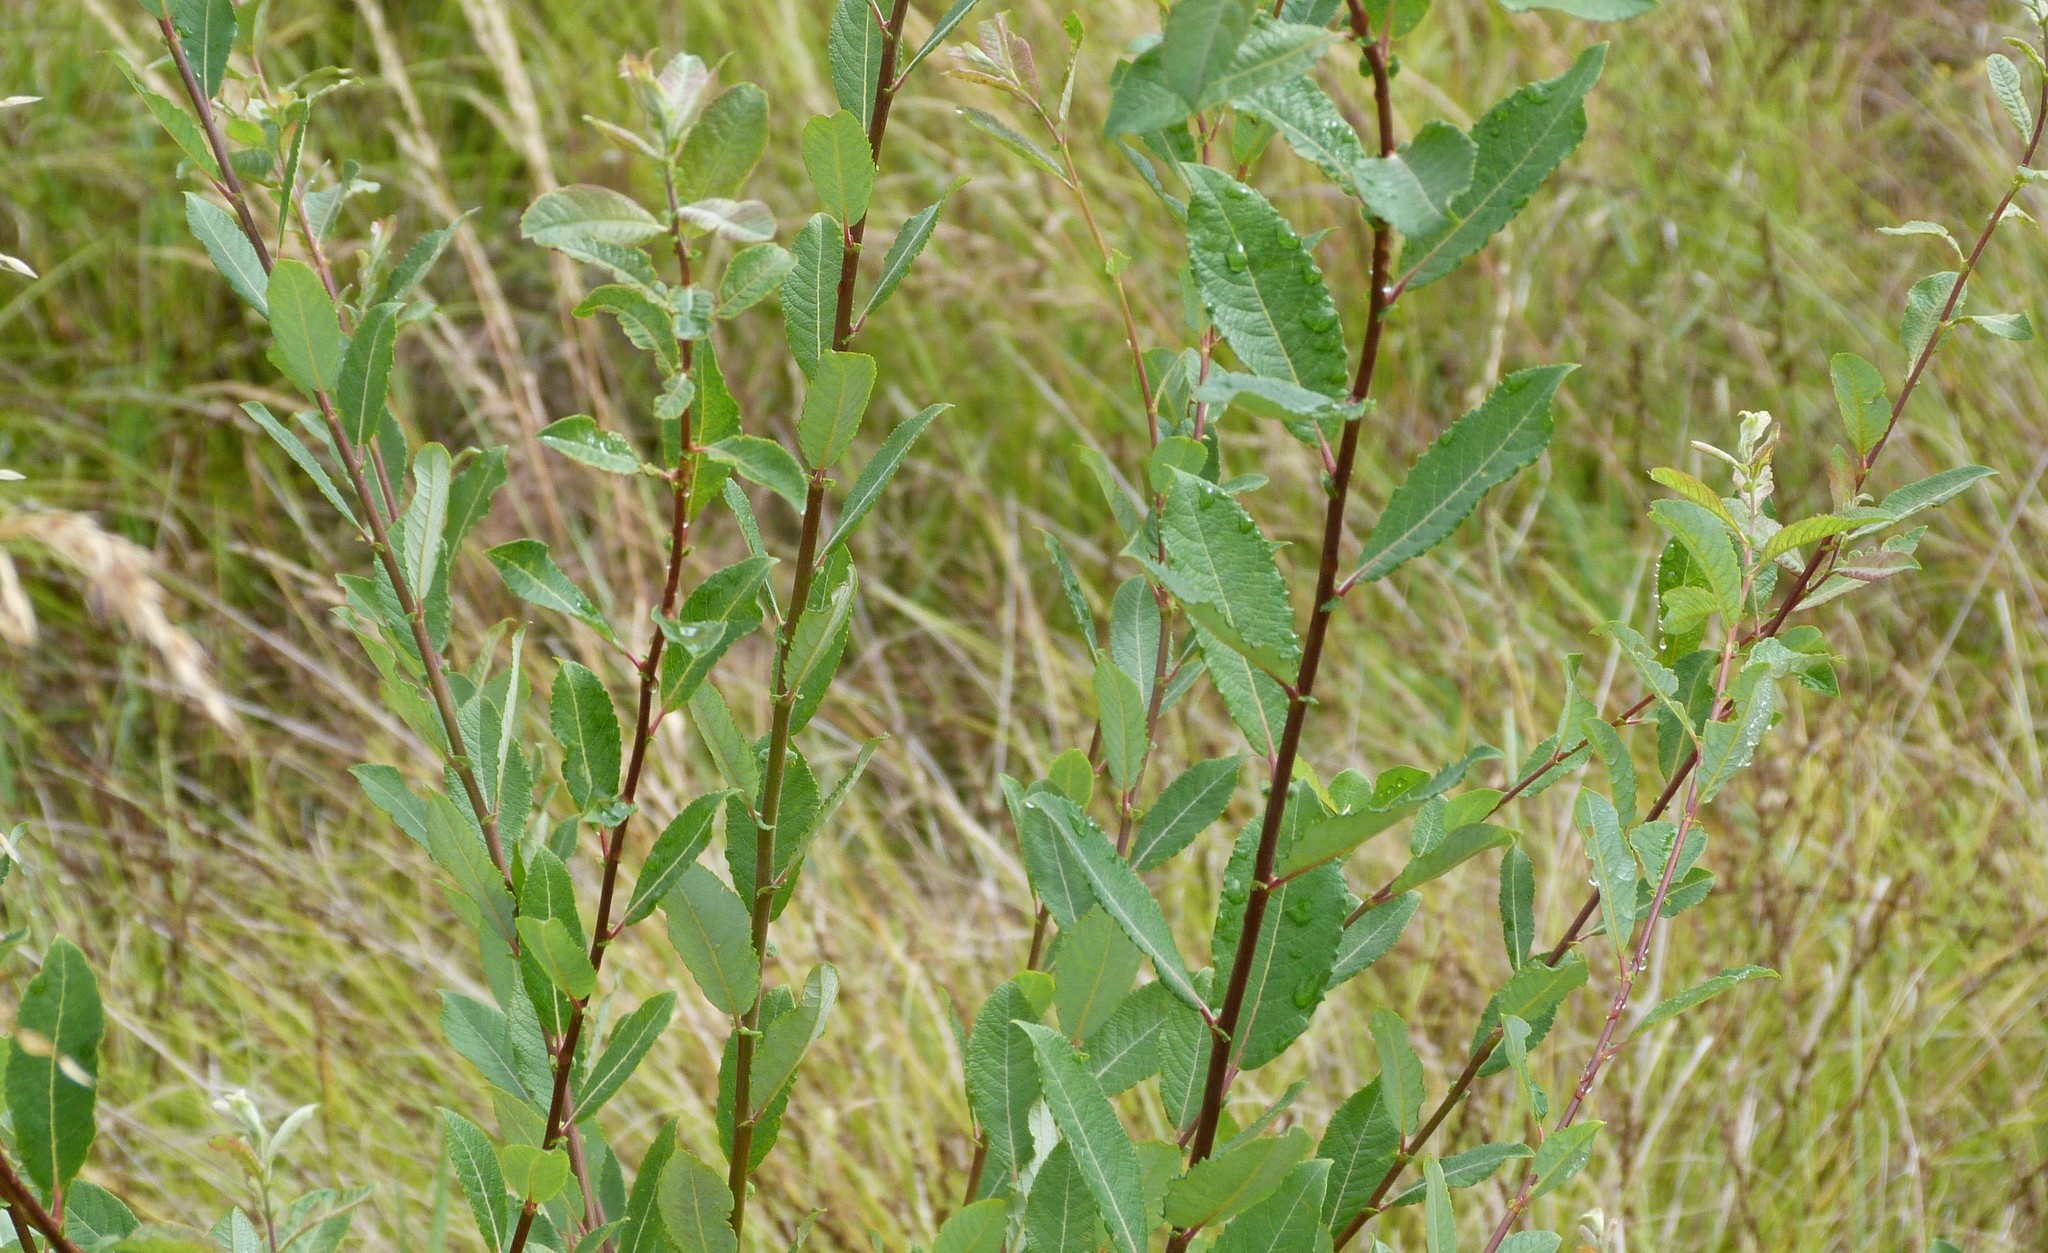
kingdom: Plantae
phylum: Tracheophyta
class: Magnoliopsida
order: Malpighiales
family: Salicaceae
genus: Salix
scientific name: Salix cinerea
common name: Common sallow
